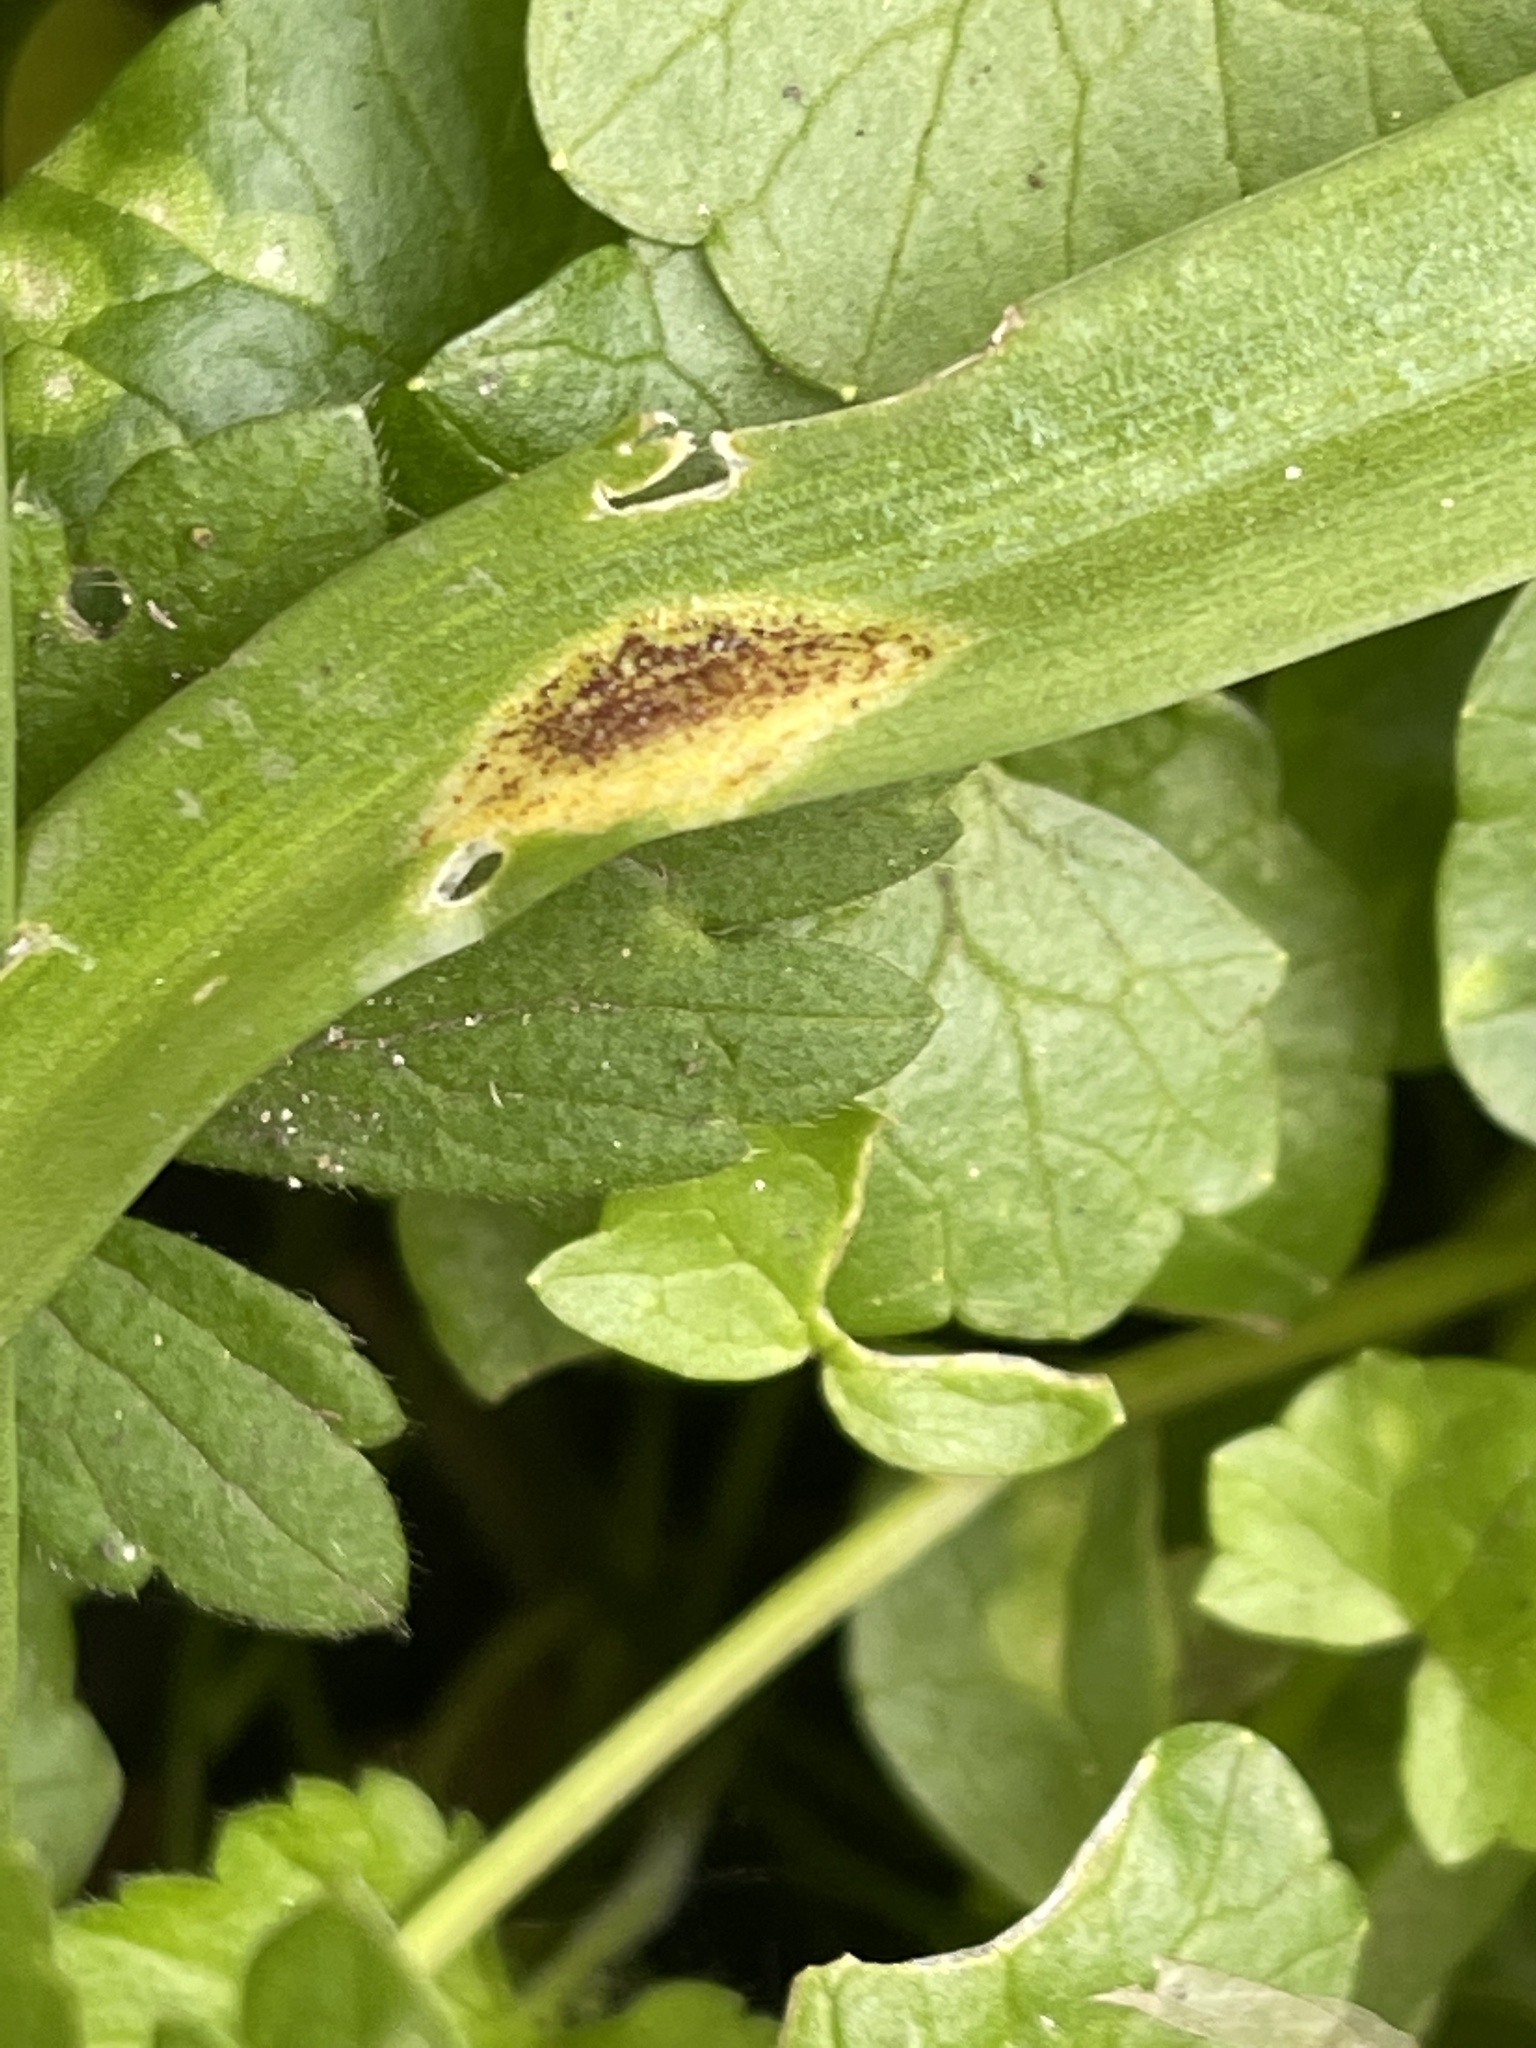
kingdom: Fungi
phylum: Basidiomycota
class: Pucciniomycetes
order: Pucciniales
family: Pucciniaceae
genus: Uromyces
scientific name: Uromyces hyacinthi
